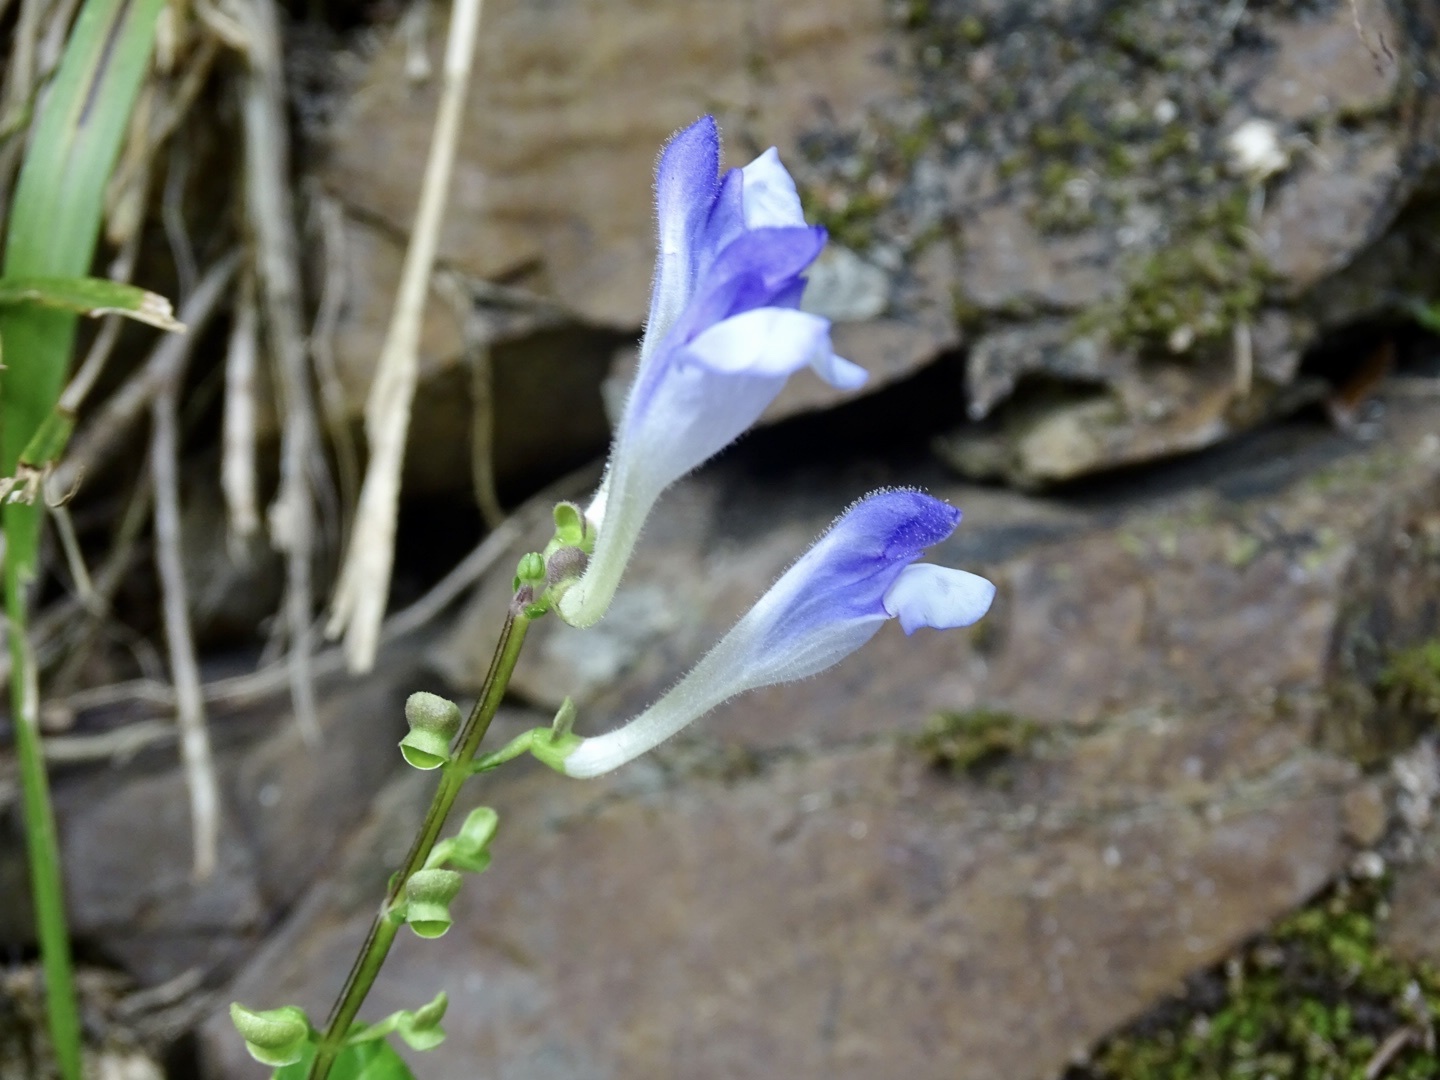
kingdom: Plantae
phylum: Tracheophyta
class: Magnoliopsida
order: Lamiales
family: Lamiaceae
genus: Scutellaria
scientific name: Scutellaria formosana
